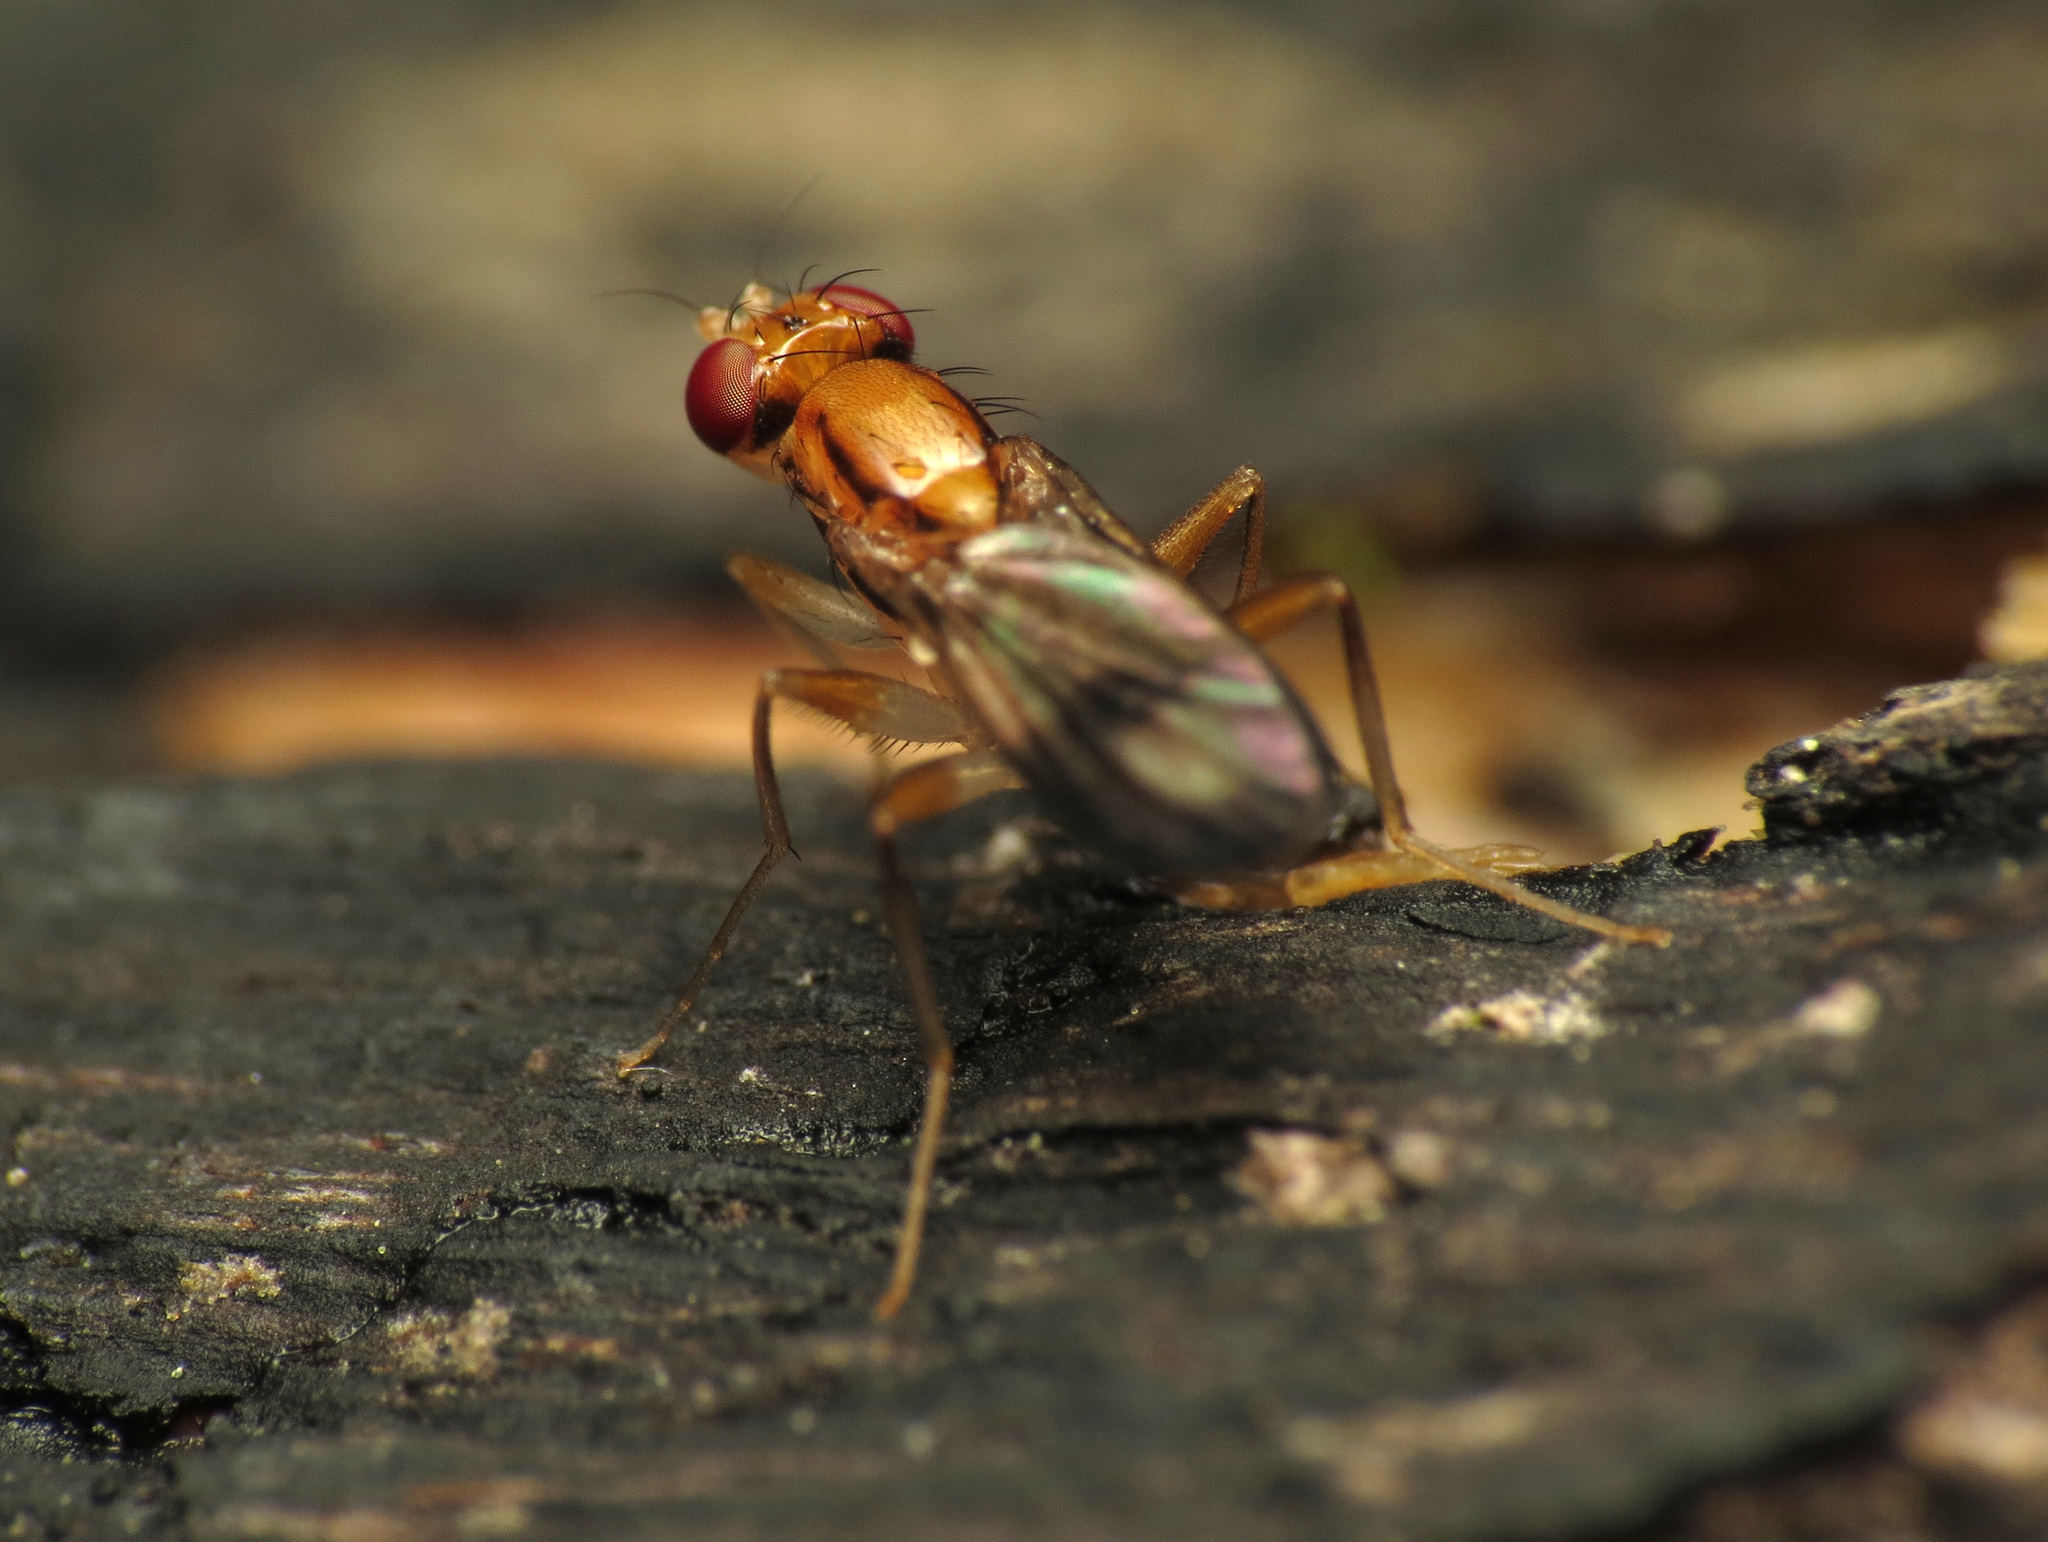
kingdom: Animalia
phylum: Arthropoda
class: Insecta
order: Diptera
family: Clusiidae
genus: Clusia
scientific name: Clusia czernyi
